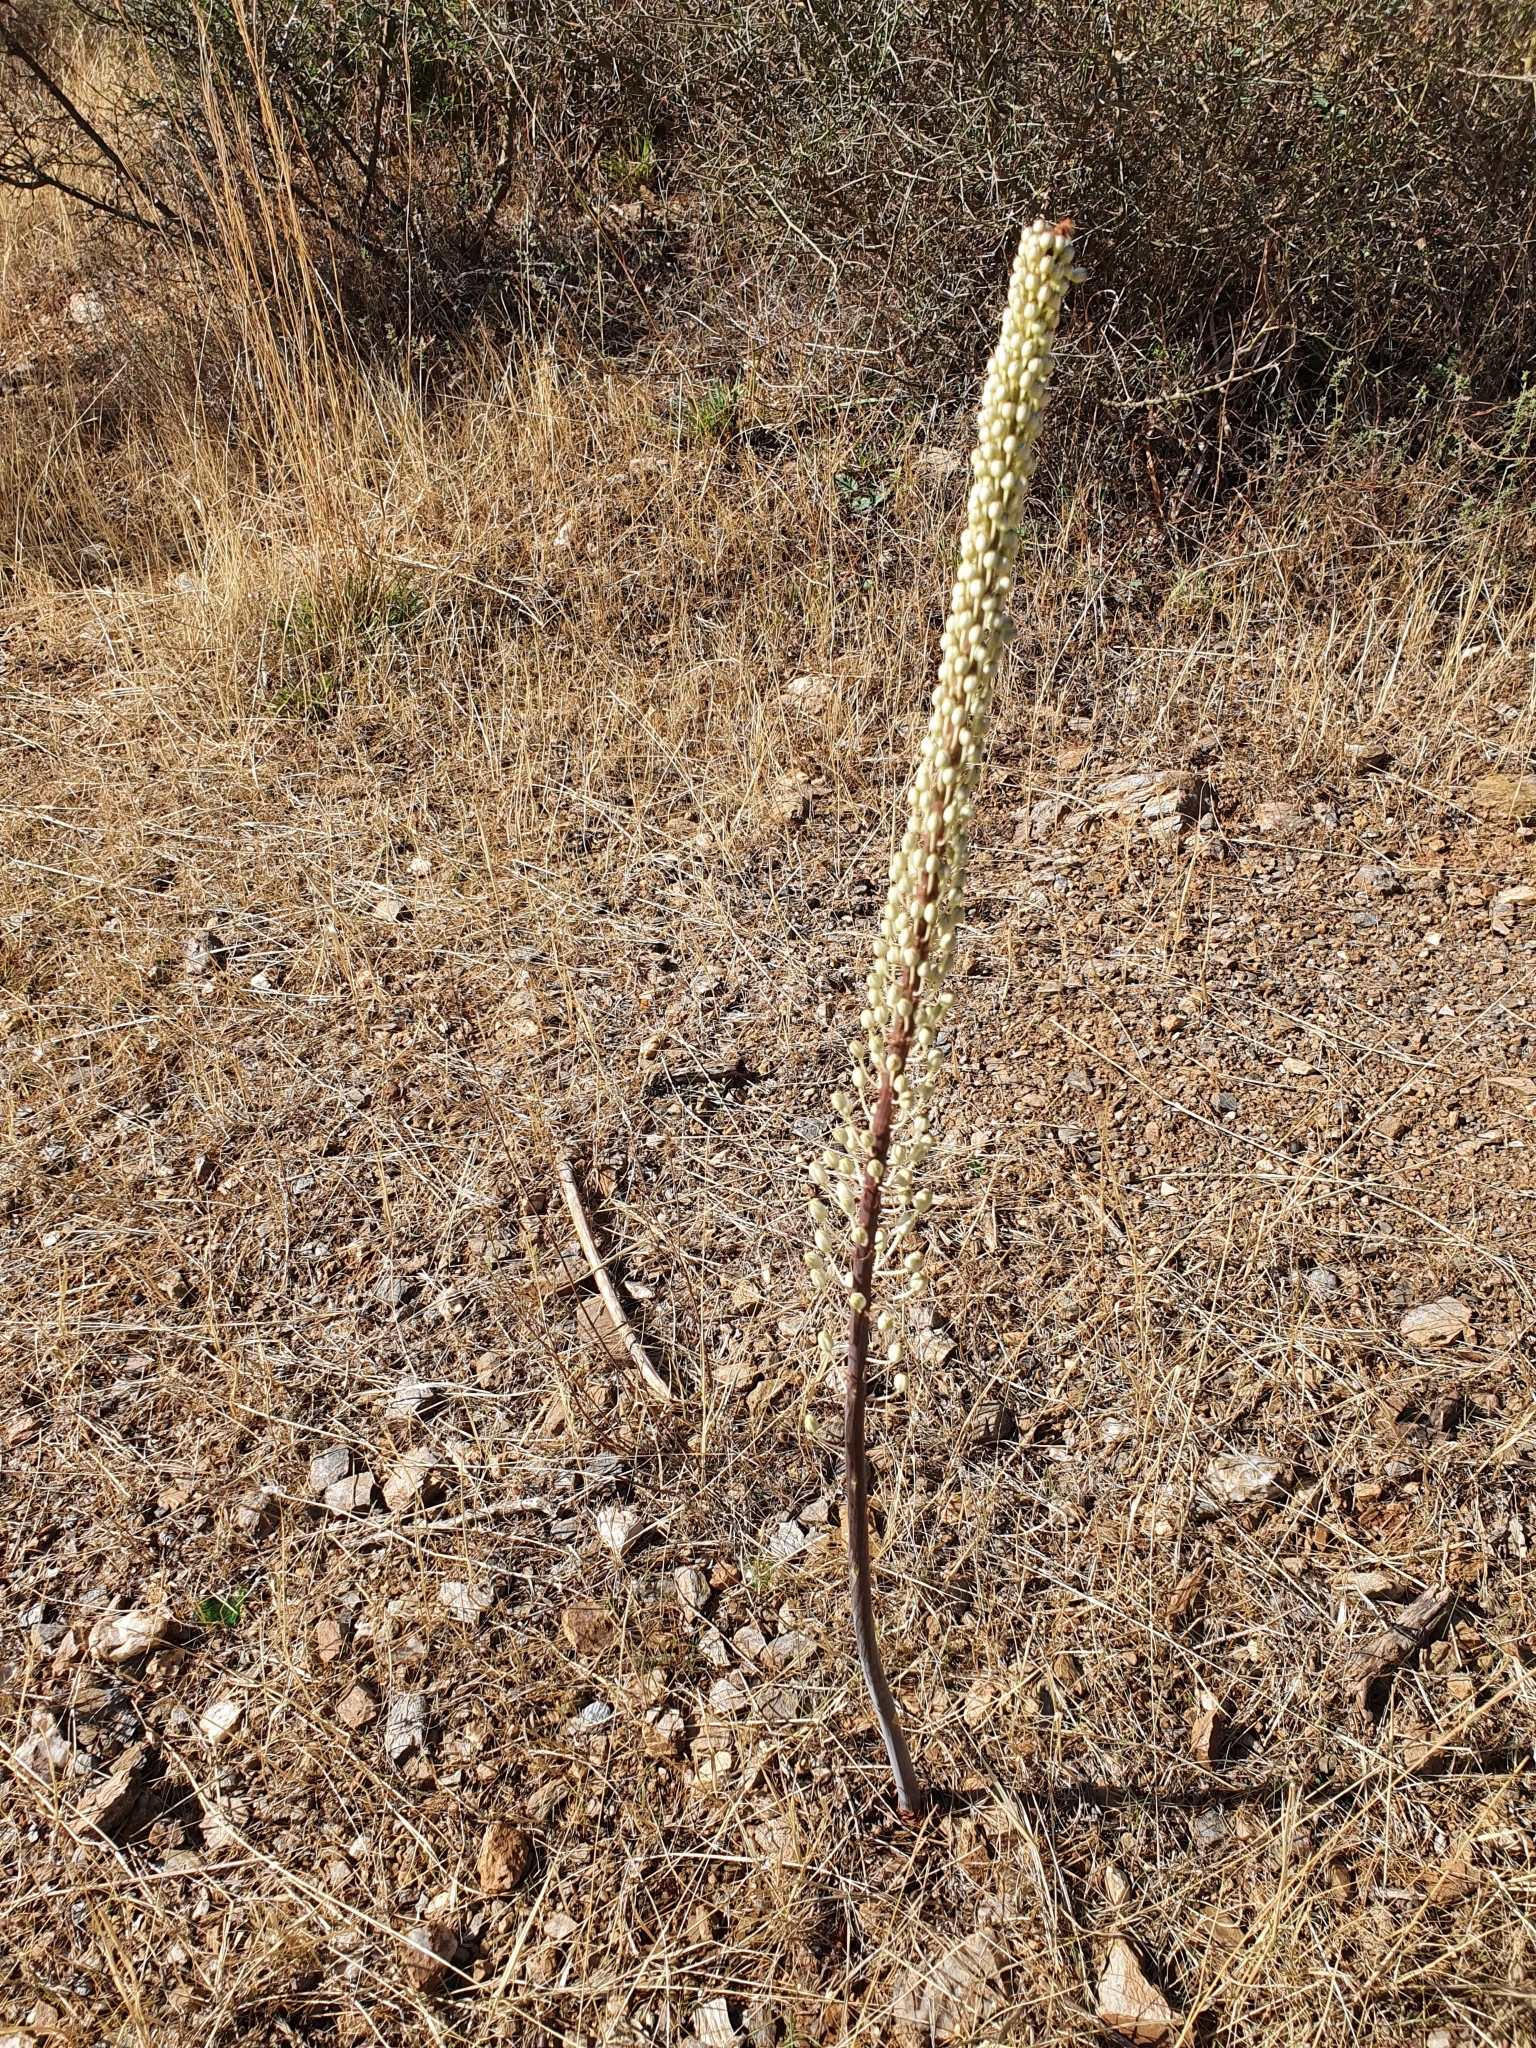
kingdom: Plantae
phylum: Tracheophyta
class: Liliopsida
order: Asparagales
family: Asparagaceae
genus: Drimia
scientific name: Drimia numidica
